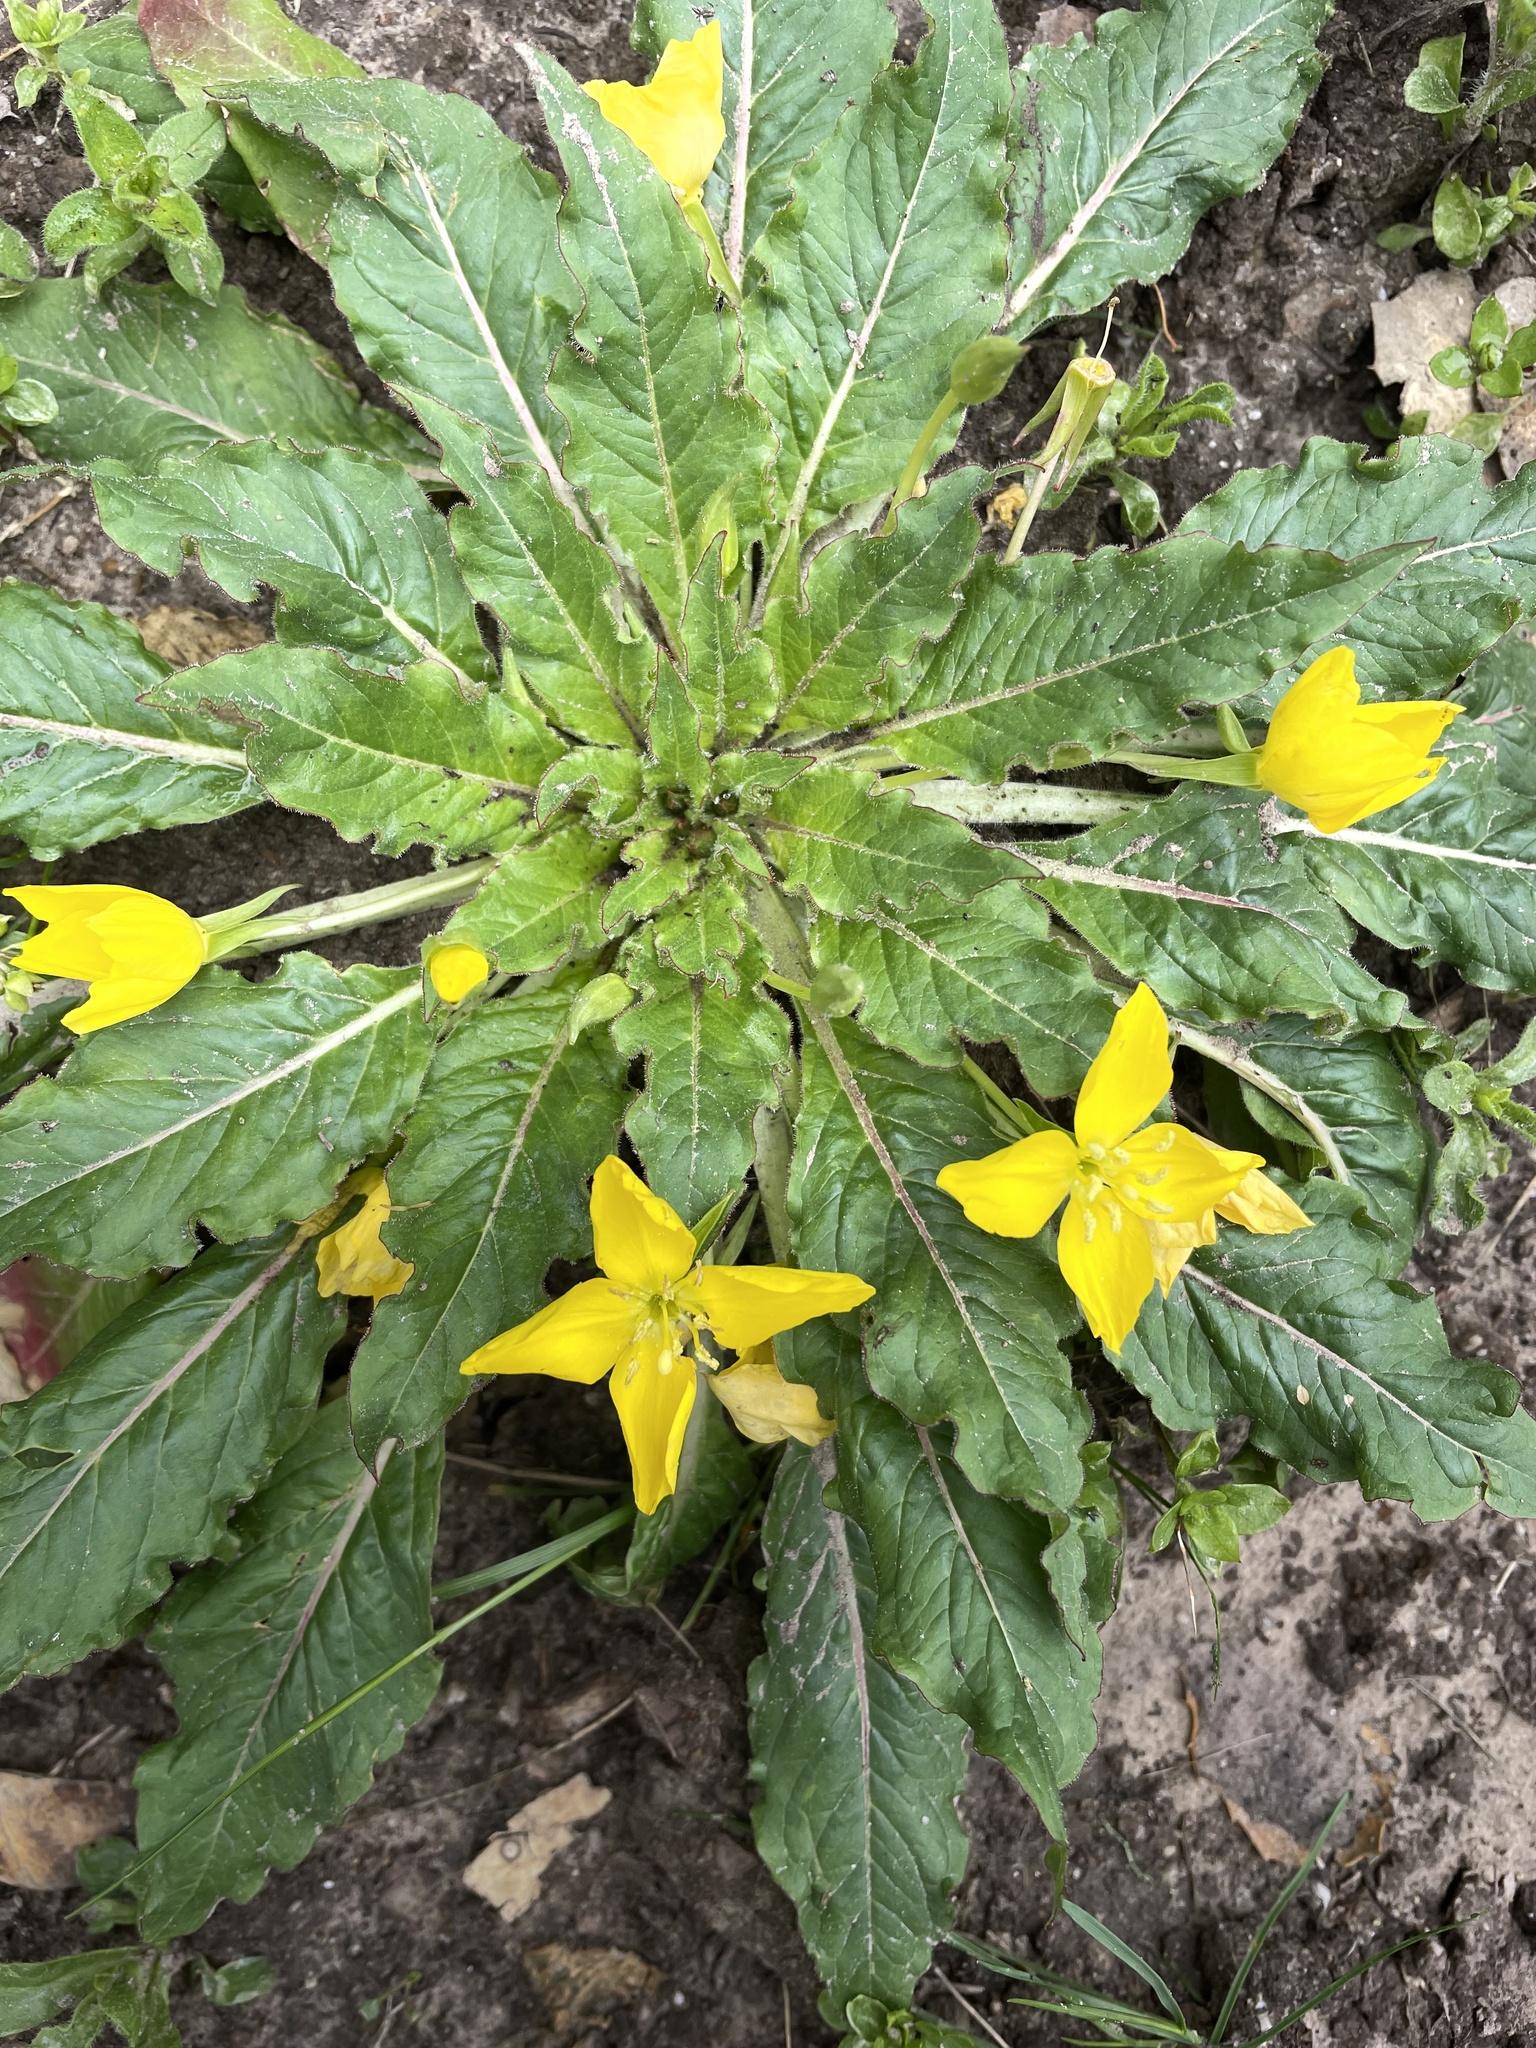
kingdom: Plantae
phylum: Tracheophyta
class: Magnoliopsida
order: Myrtales
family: Onagraceae
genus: Taraxia
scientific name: Taraxia ovata
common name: Goldeneggs
